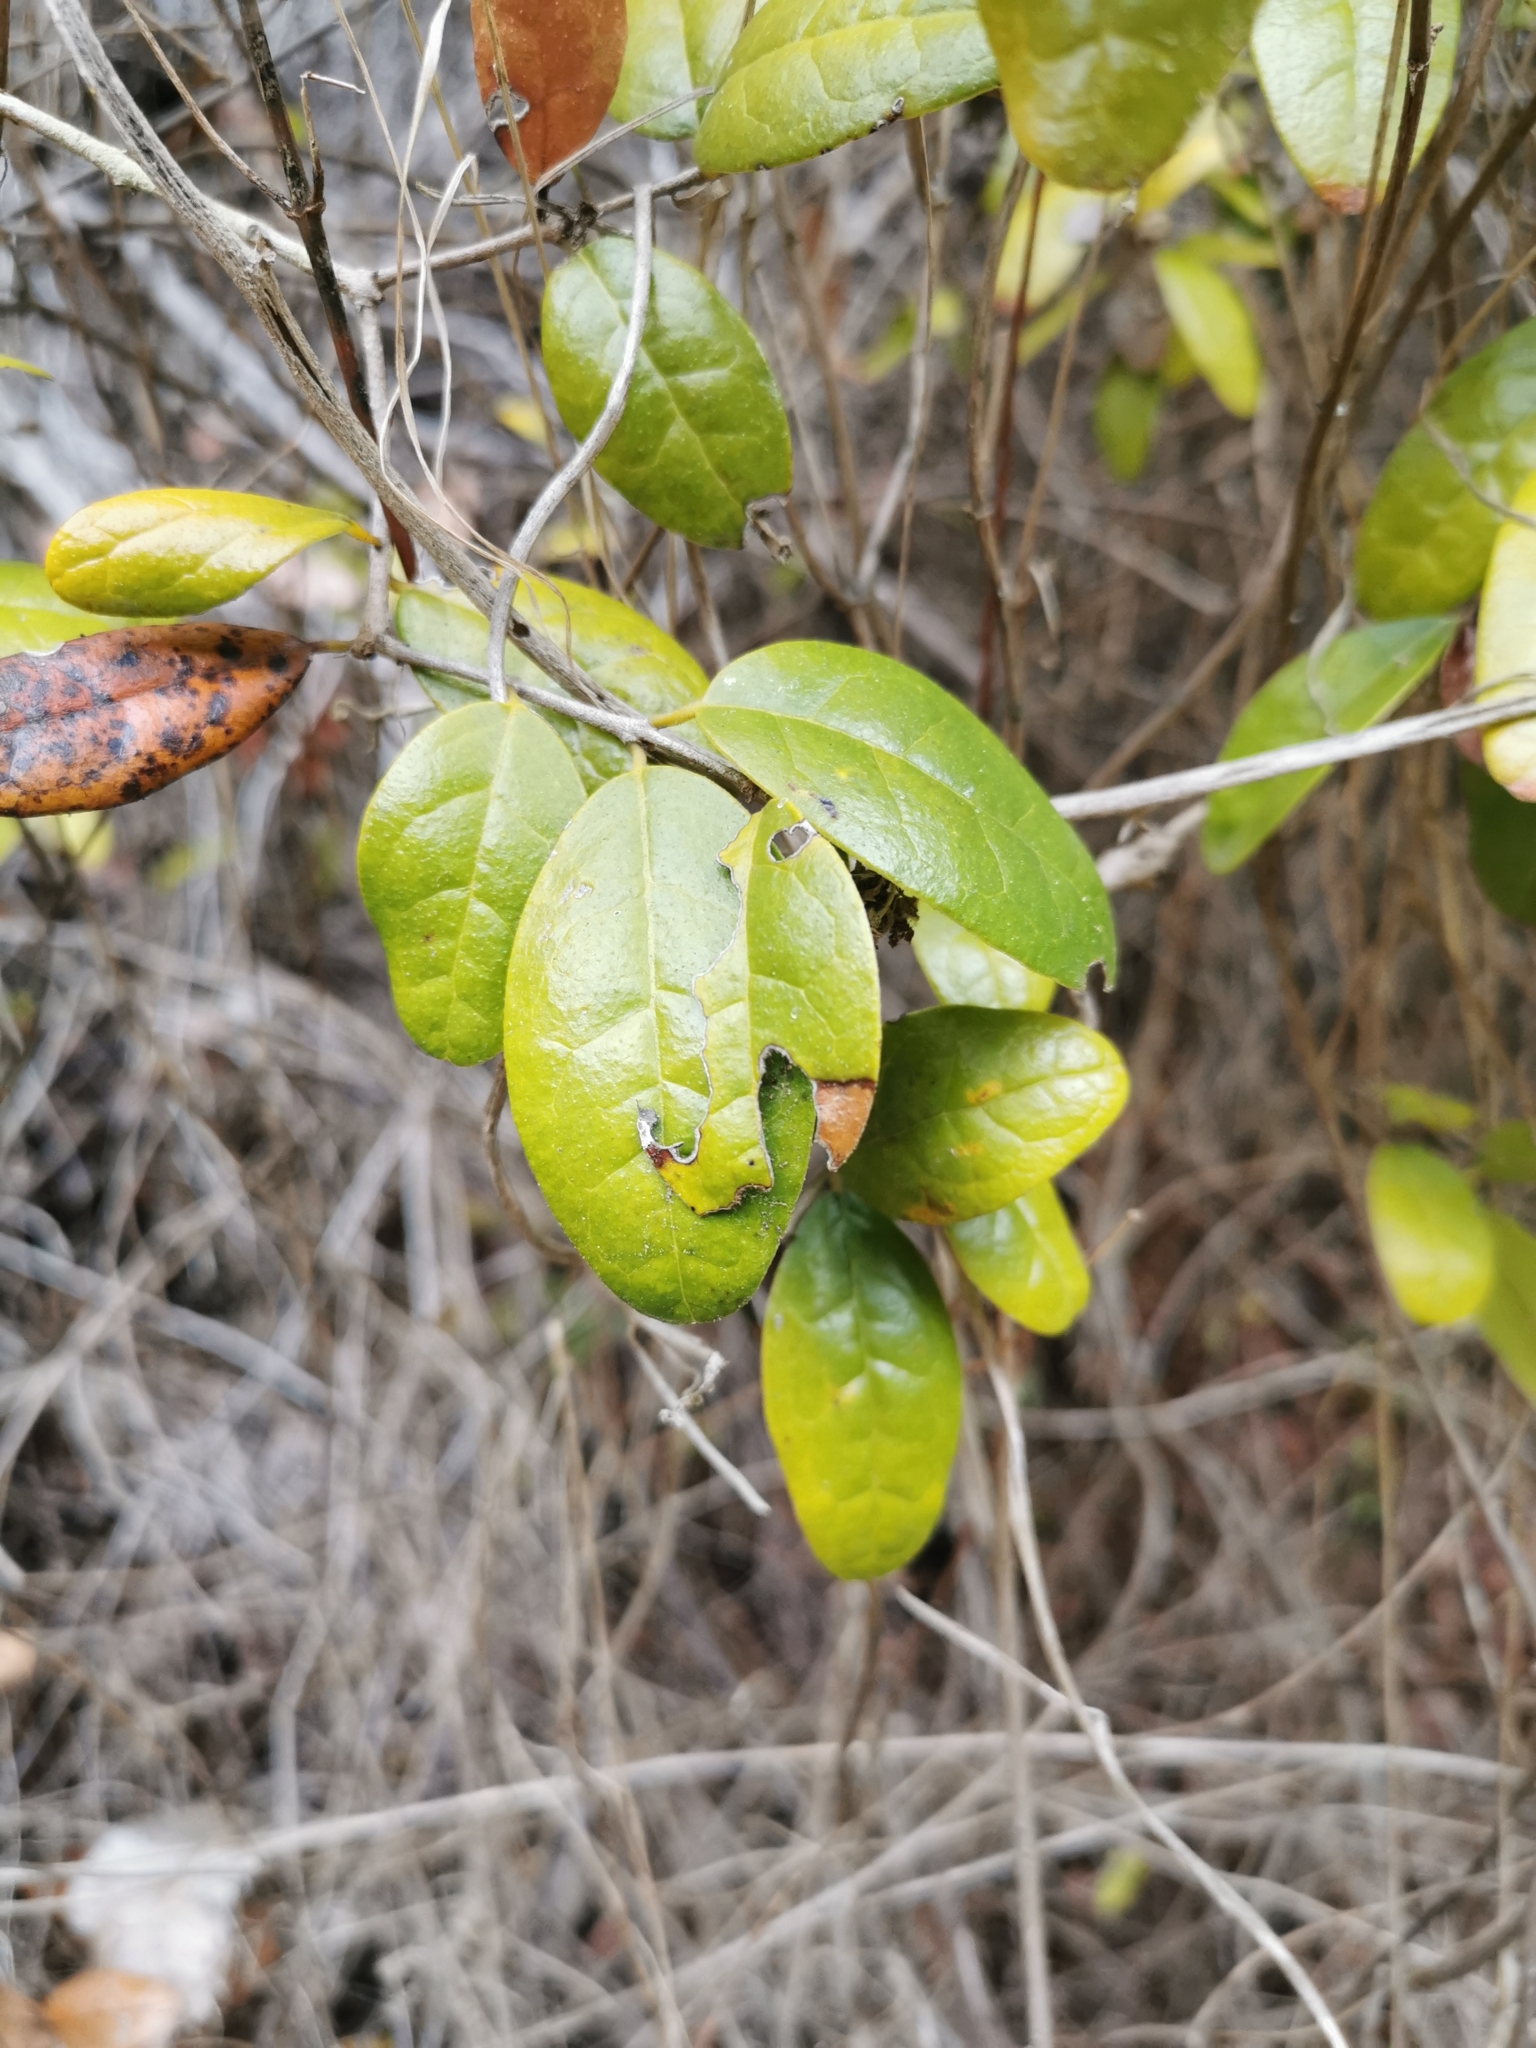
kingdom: Plantae
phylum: Tracheophyta
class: Magnoliopsida
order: Laurales
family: Monimiaceae
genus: Peumus
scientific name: Peumus boldus
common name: Boldo
